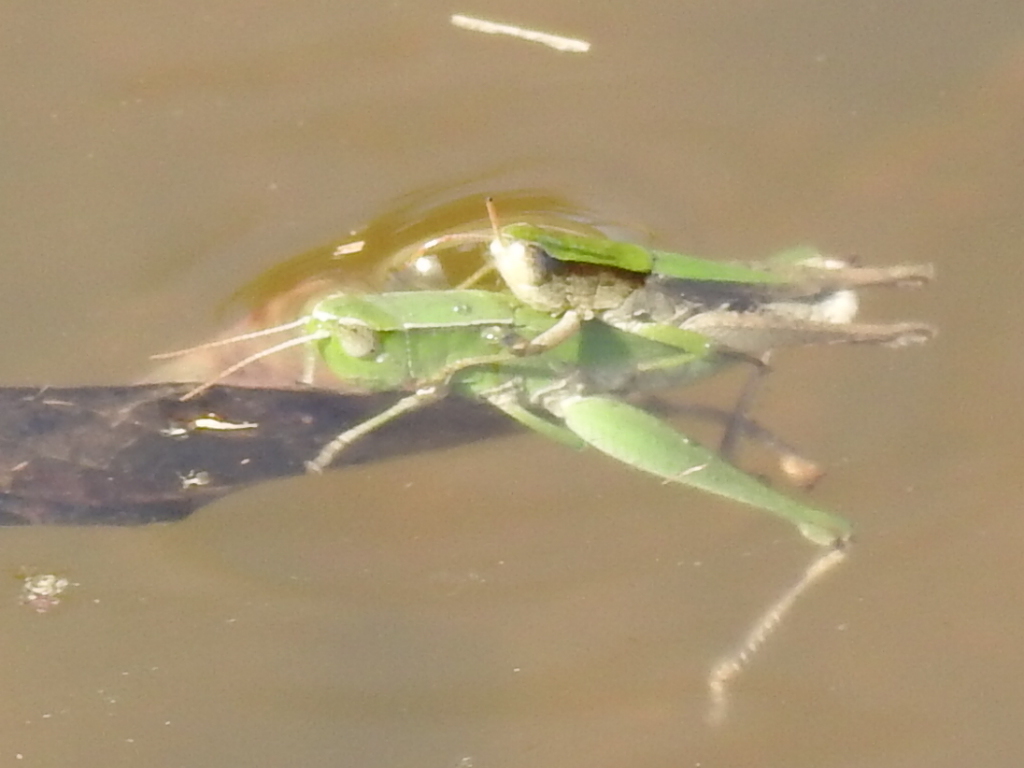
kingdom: Animalia
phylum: Arthropoda
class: Insecta
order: Orthoptera
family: Acrididae
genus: Dichromorpha
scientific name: Dichromorpha viridis
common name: Short-winged green grasshopper
